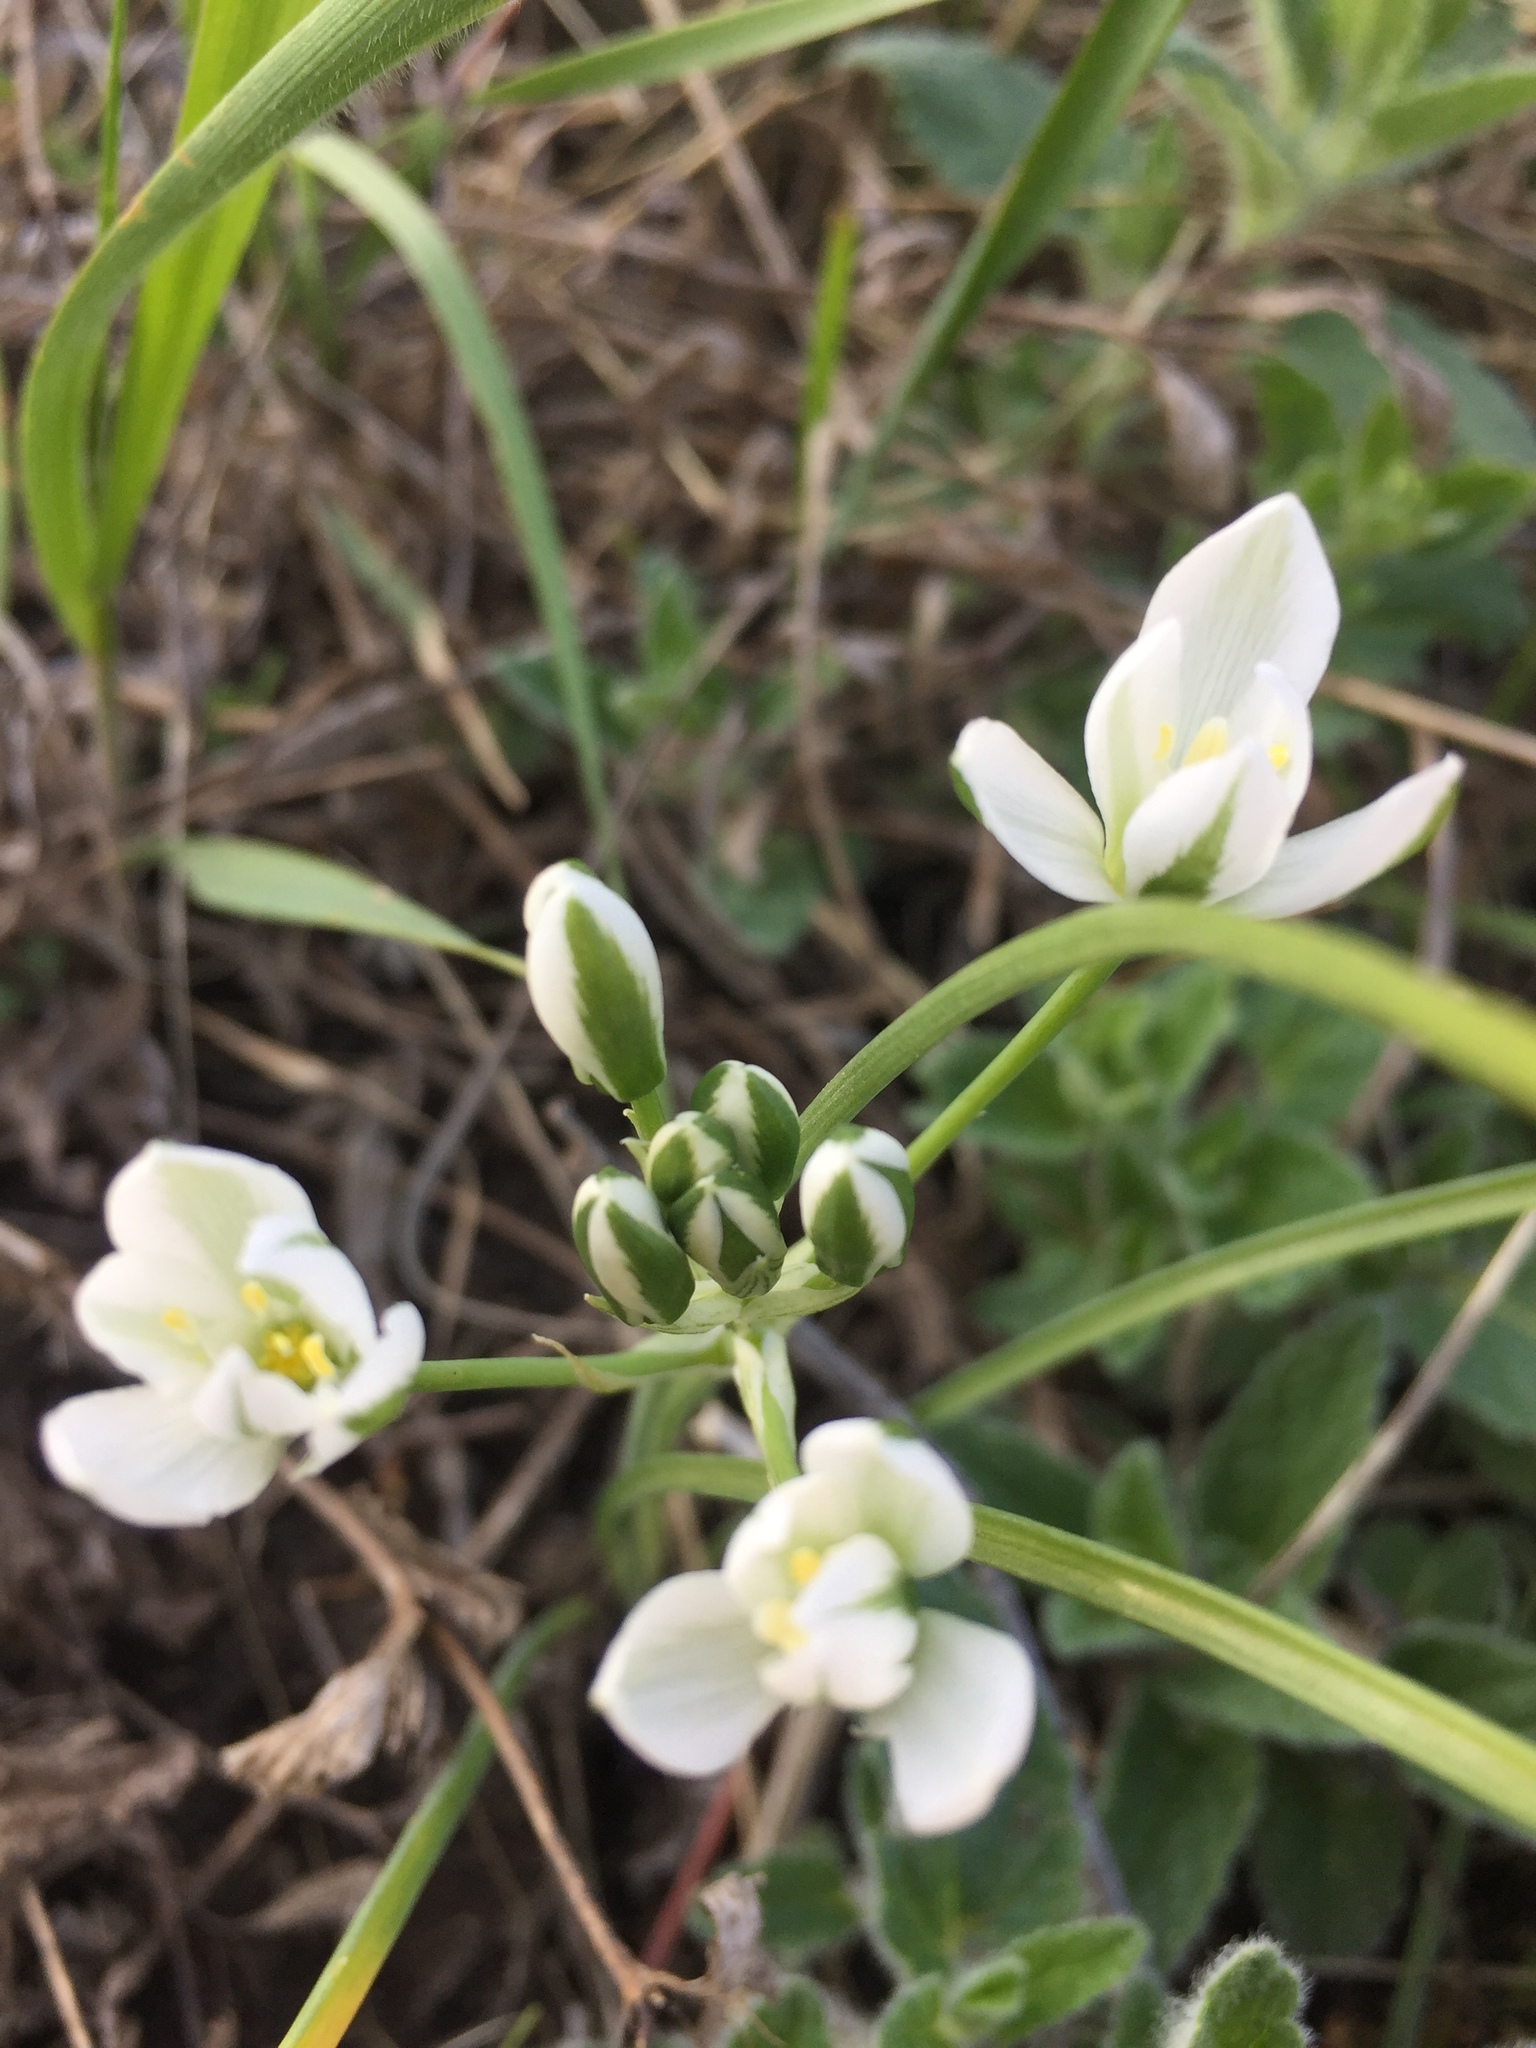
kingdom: Plantae
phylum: Tracheophyta
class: Liliopsida
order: Asparagales
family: Asparagaceae
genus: Ornithogalum
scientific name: Ornithogalum orthophyllum
